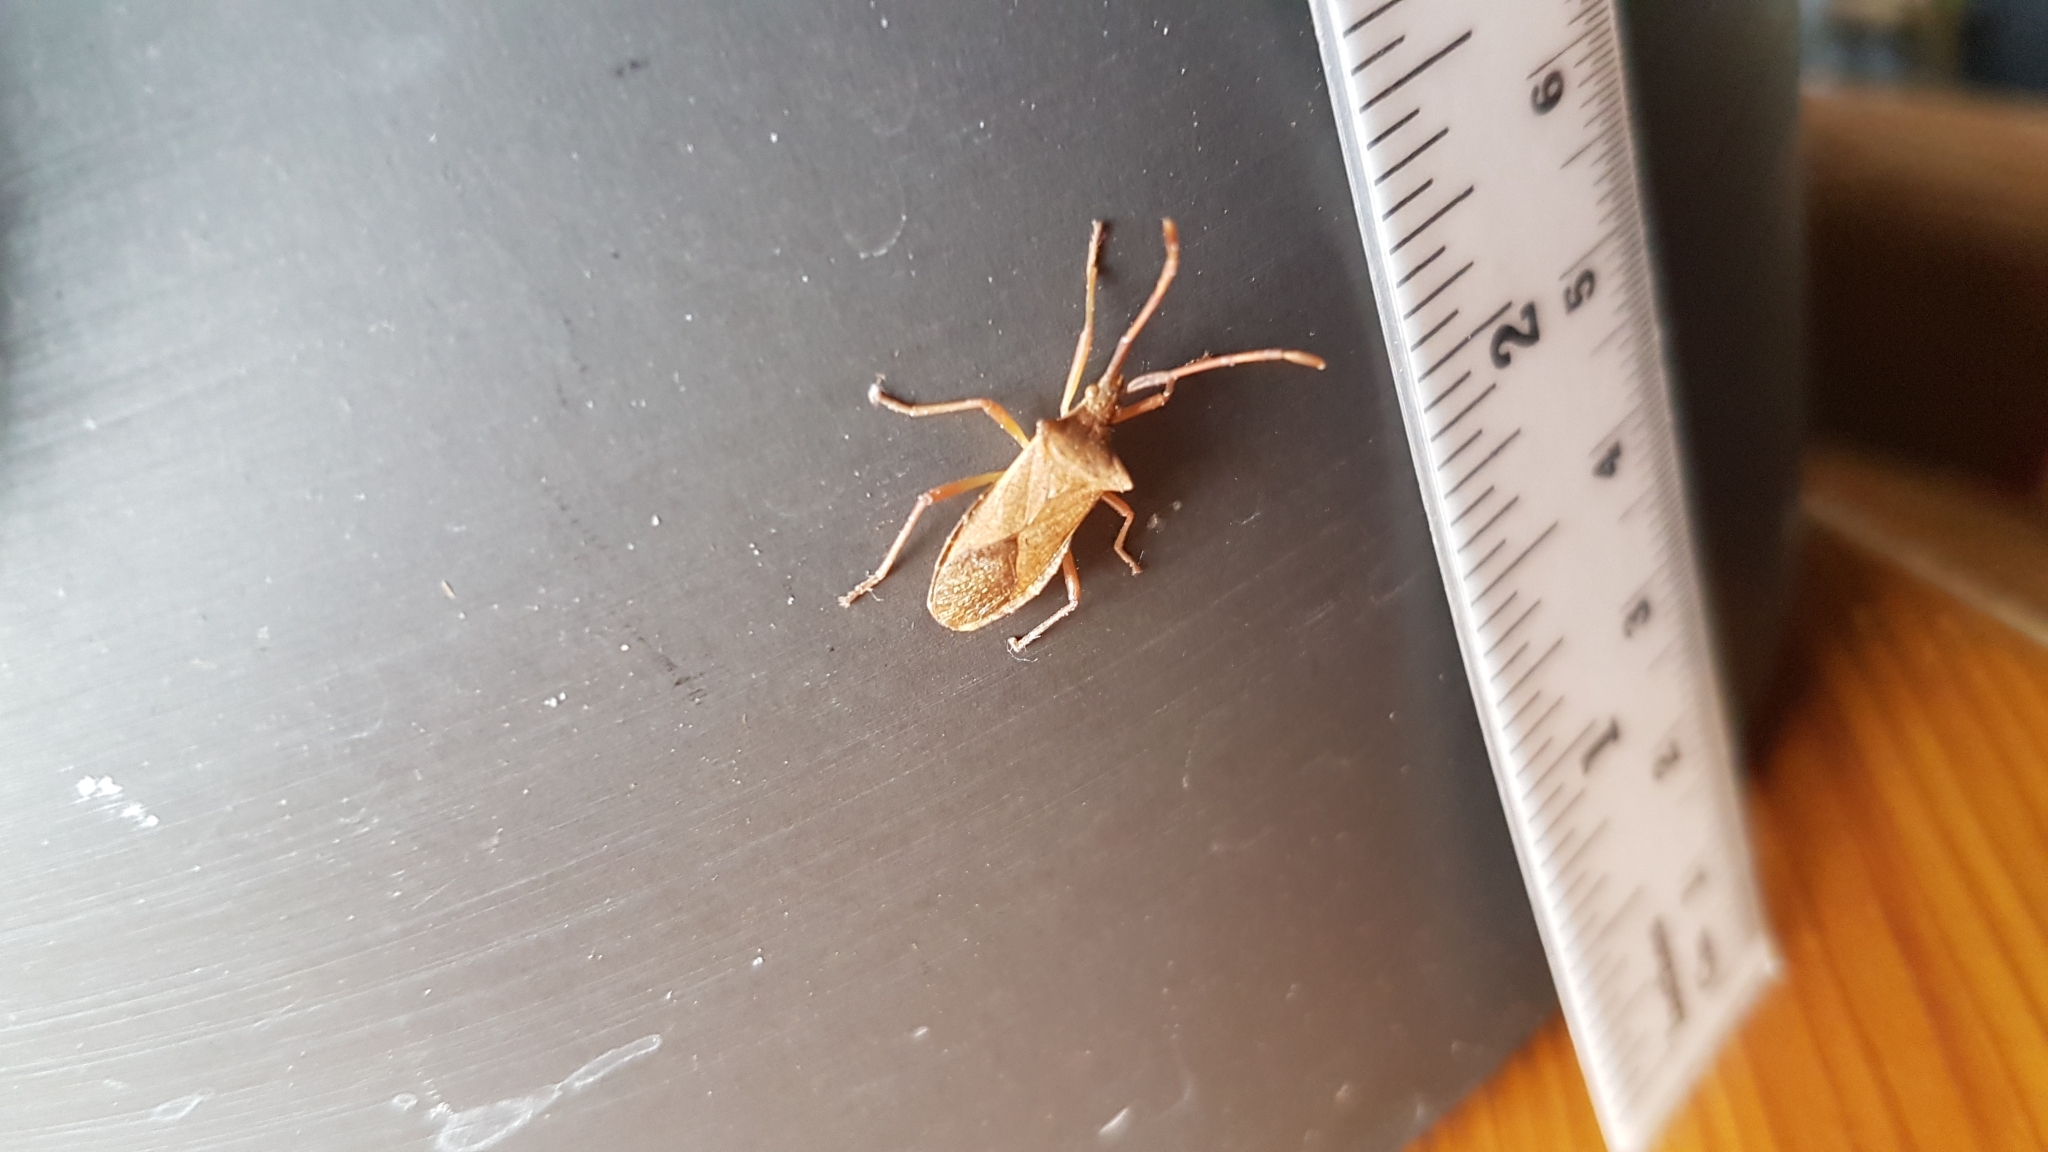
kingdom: Animalia
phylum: Arthropoda
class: Insecta
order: Hemiptera
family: Coreidae
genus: Gonocerus
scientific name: Gonocerus acuteangulatus
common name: Box bug
